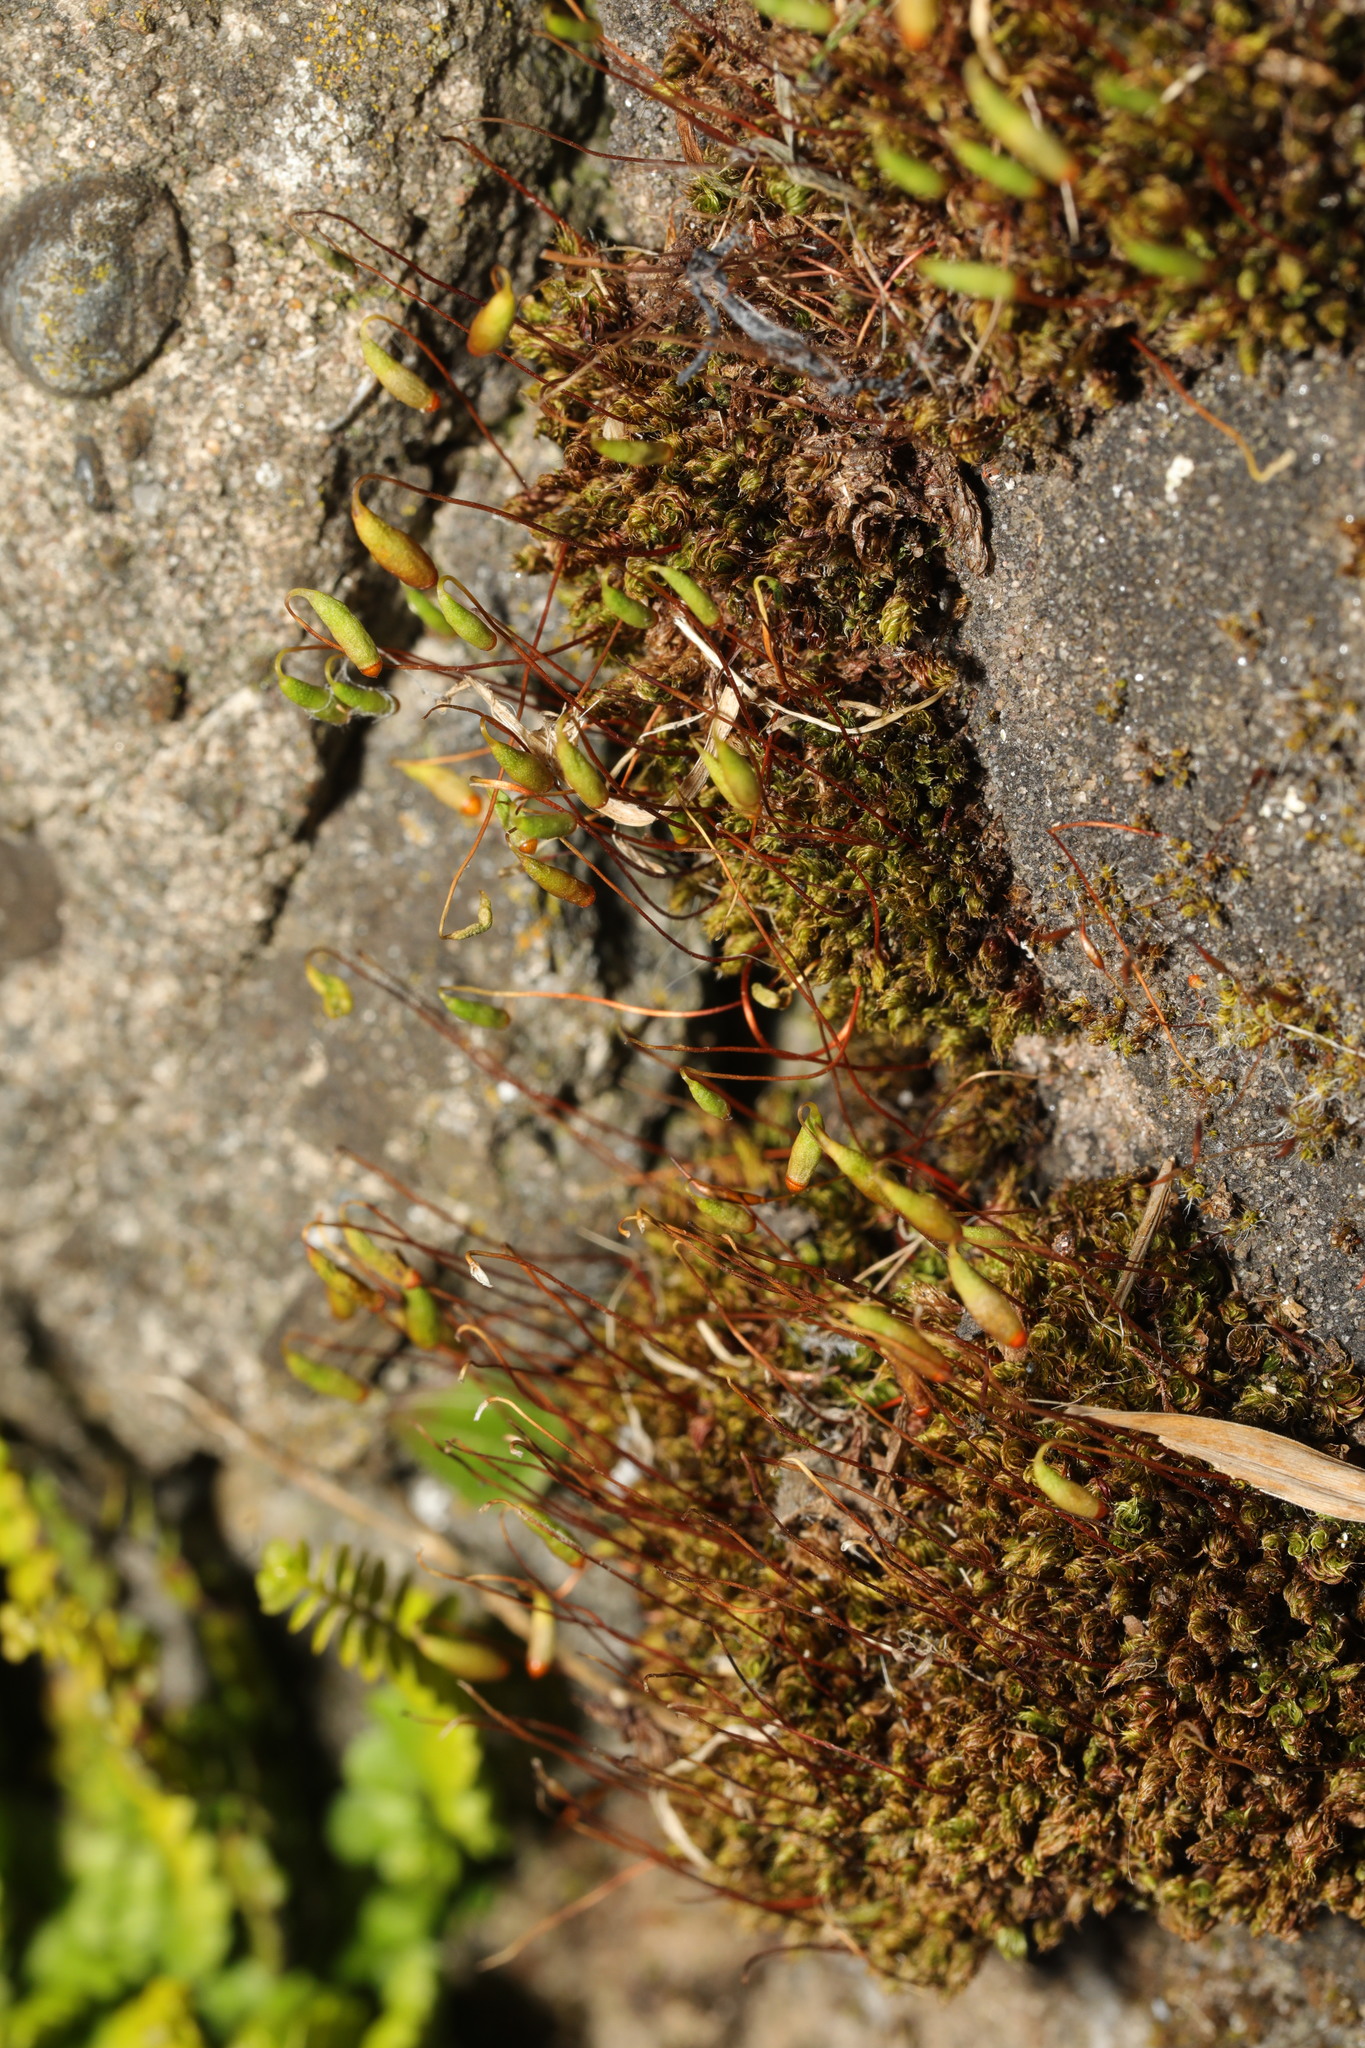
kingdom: Plantae
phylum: Bryophyta
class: Bryopsida
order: Bryales
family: Bryaceae
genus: Rosulabryum
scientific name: Rosulabryum capillare
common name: Capillary thread-moss
